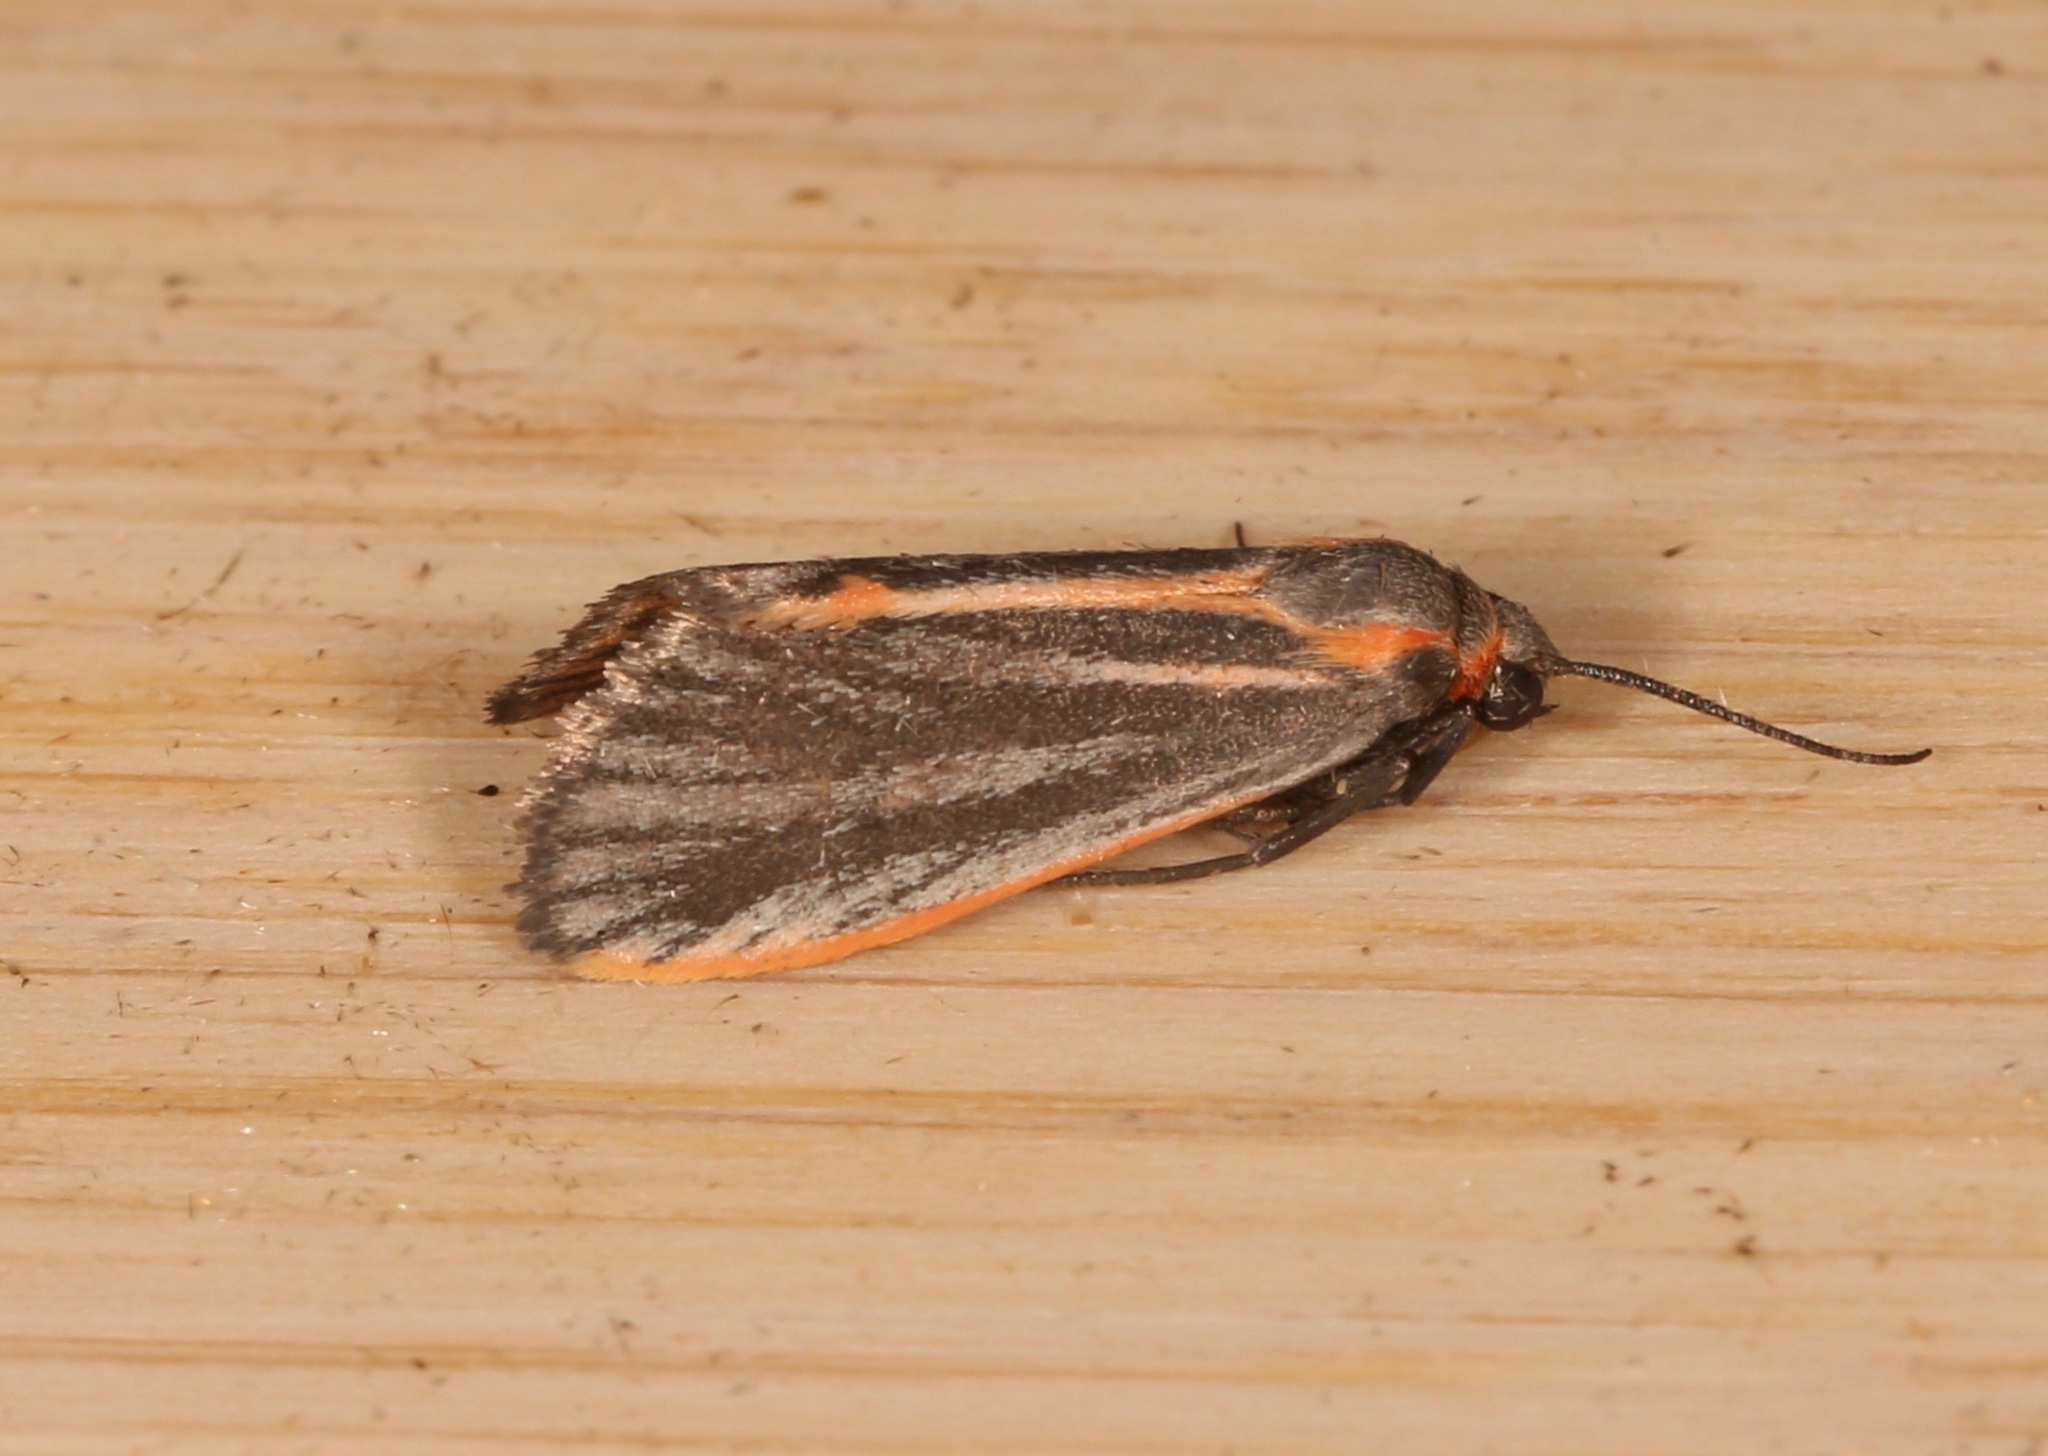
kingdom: Animalia
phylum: Arthropoda
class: Insecta
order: Lepidoptera
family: Erebidae
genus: Cisthene
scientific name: Cisthene striata
